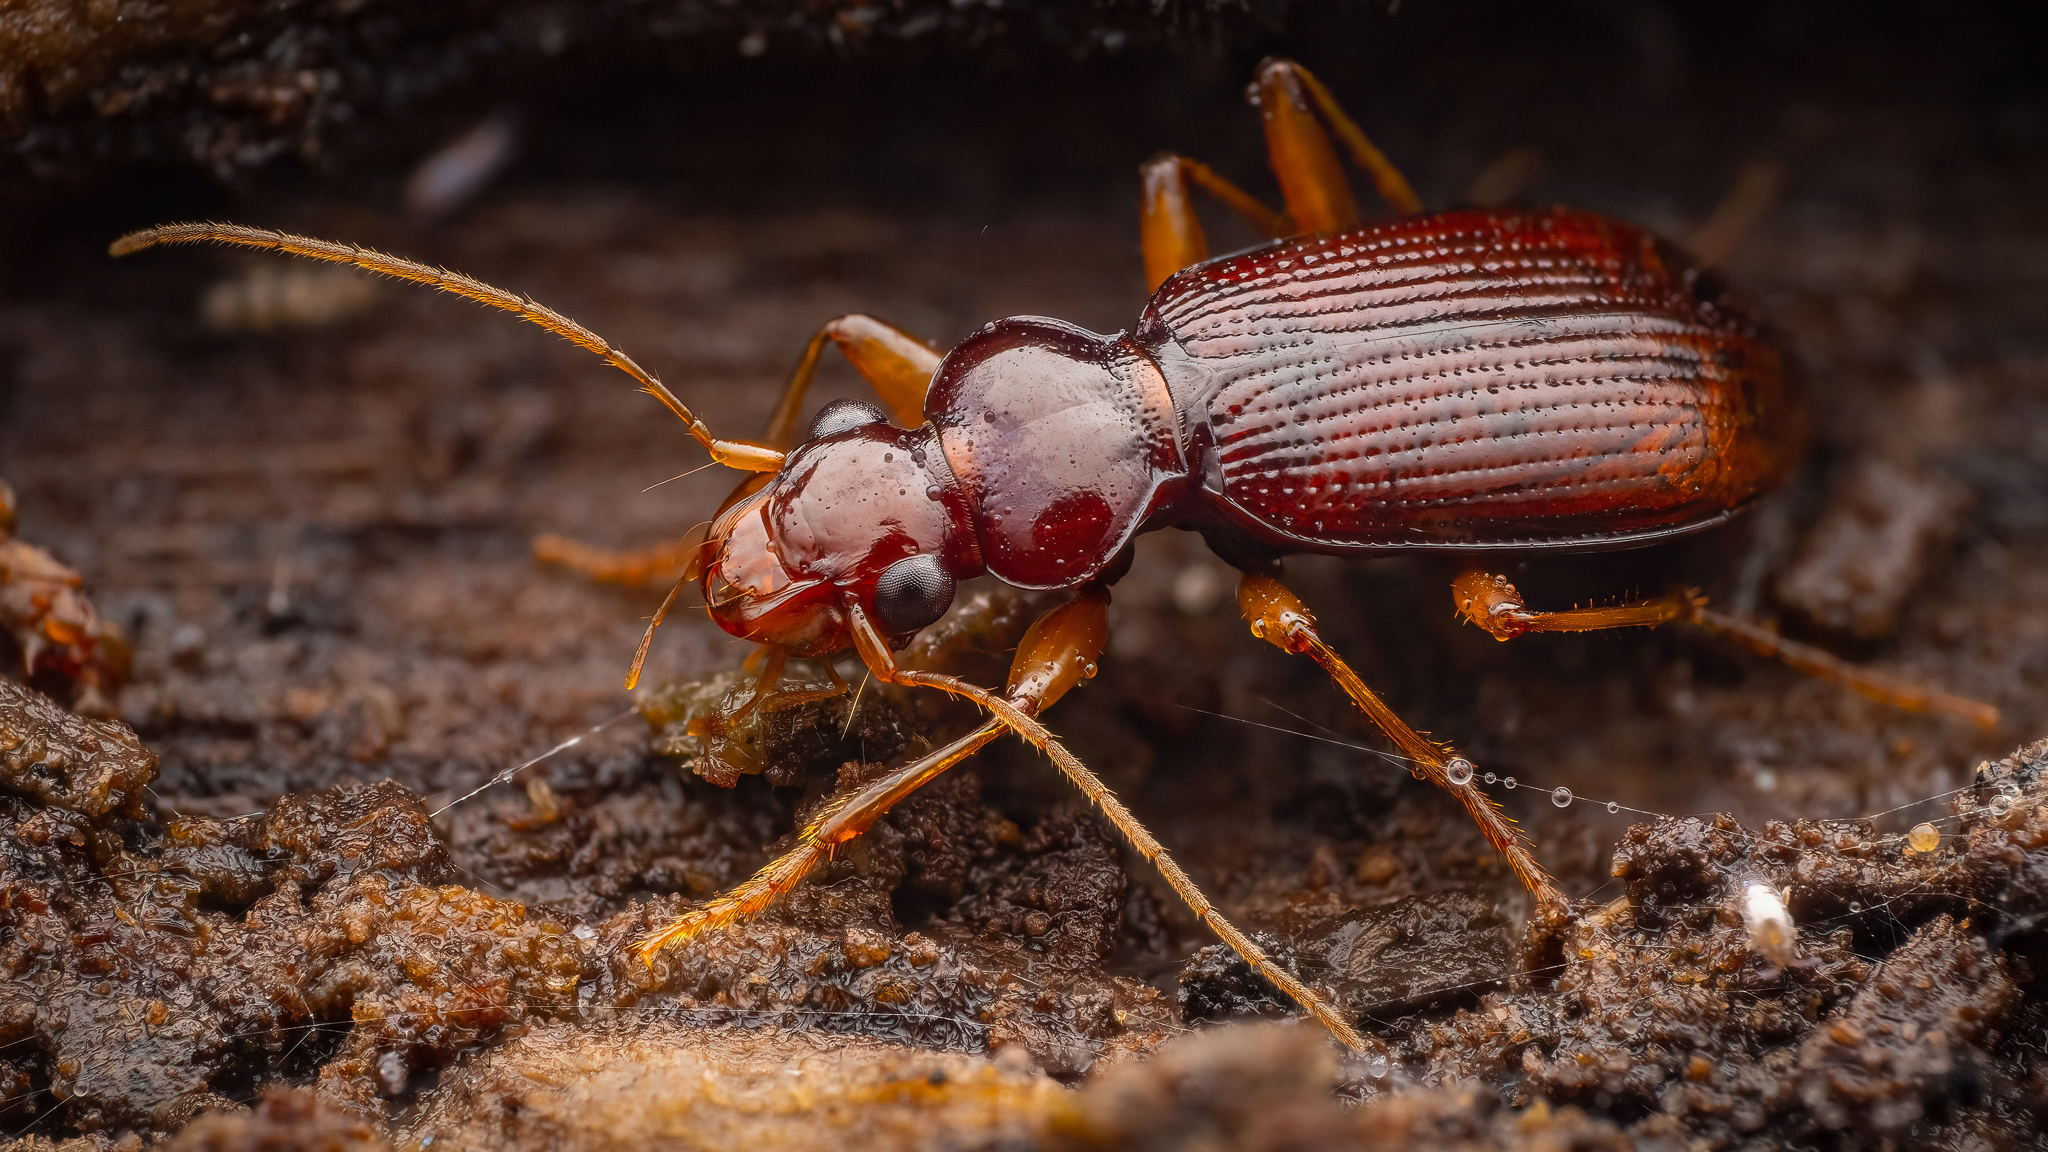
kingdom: Animalia
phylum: Arthropoda
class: Insecta
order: Coleoptera
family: Carabidae
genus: Leistus
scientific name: Leistus ferrugineus
